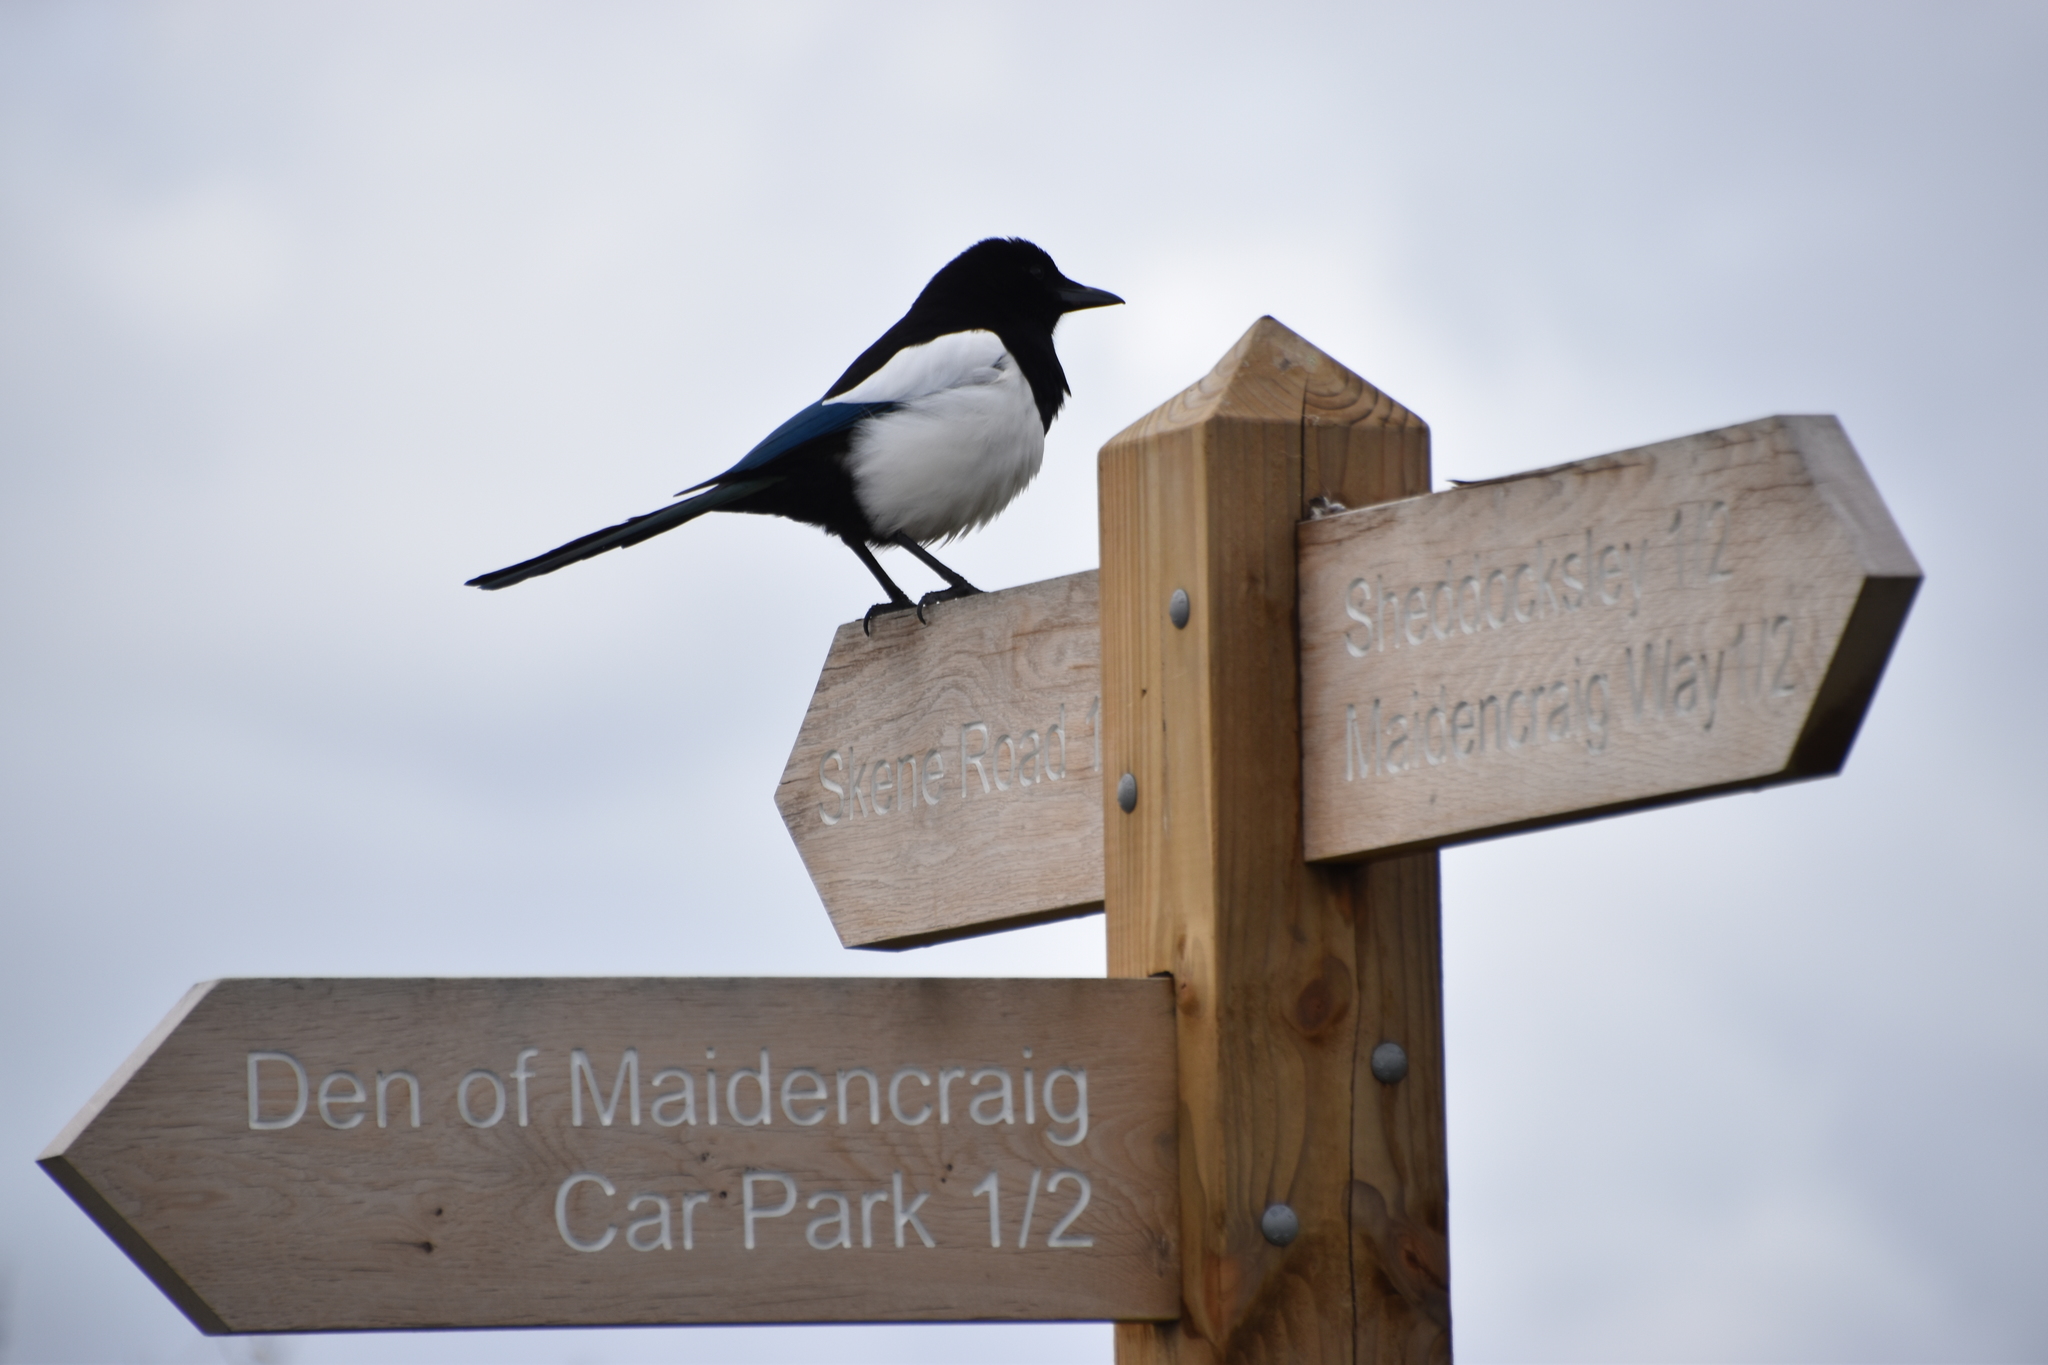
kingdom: Animalia
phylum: Chordata
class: Aves
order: Passeriformes
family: Corvidae
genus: Pica
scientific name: Pica pica
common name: Eurasian magpie
